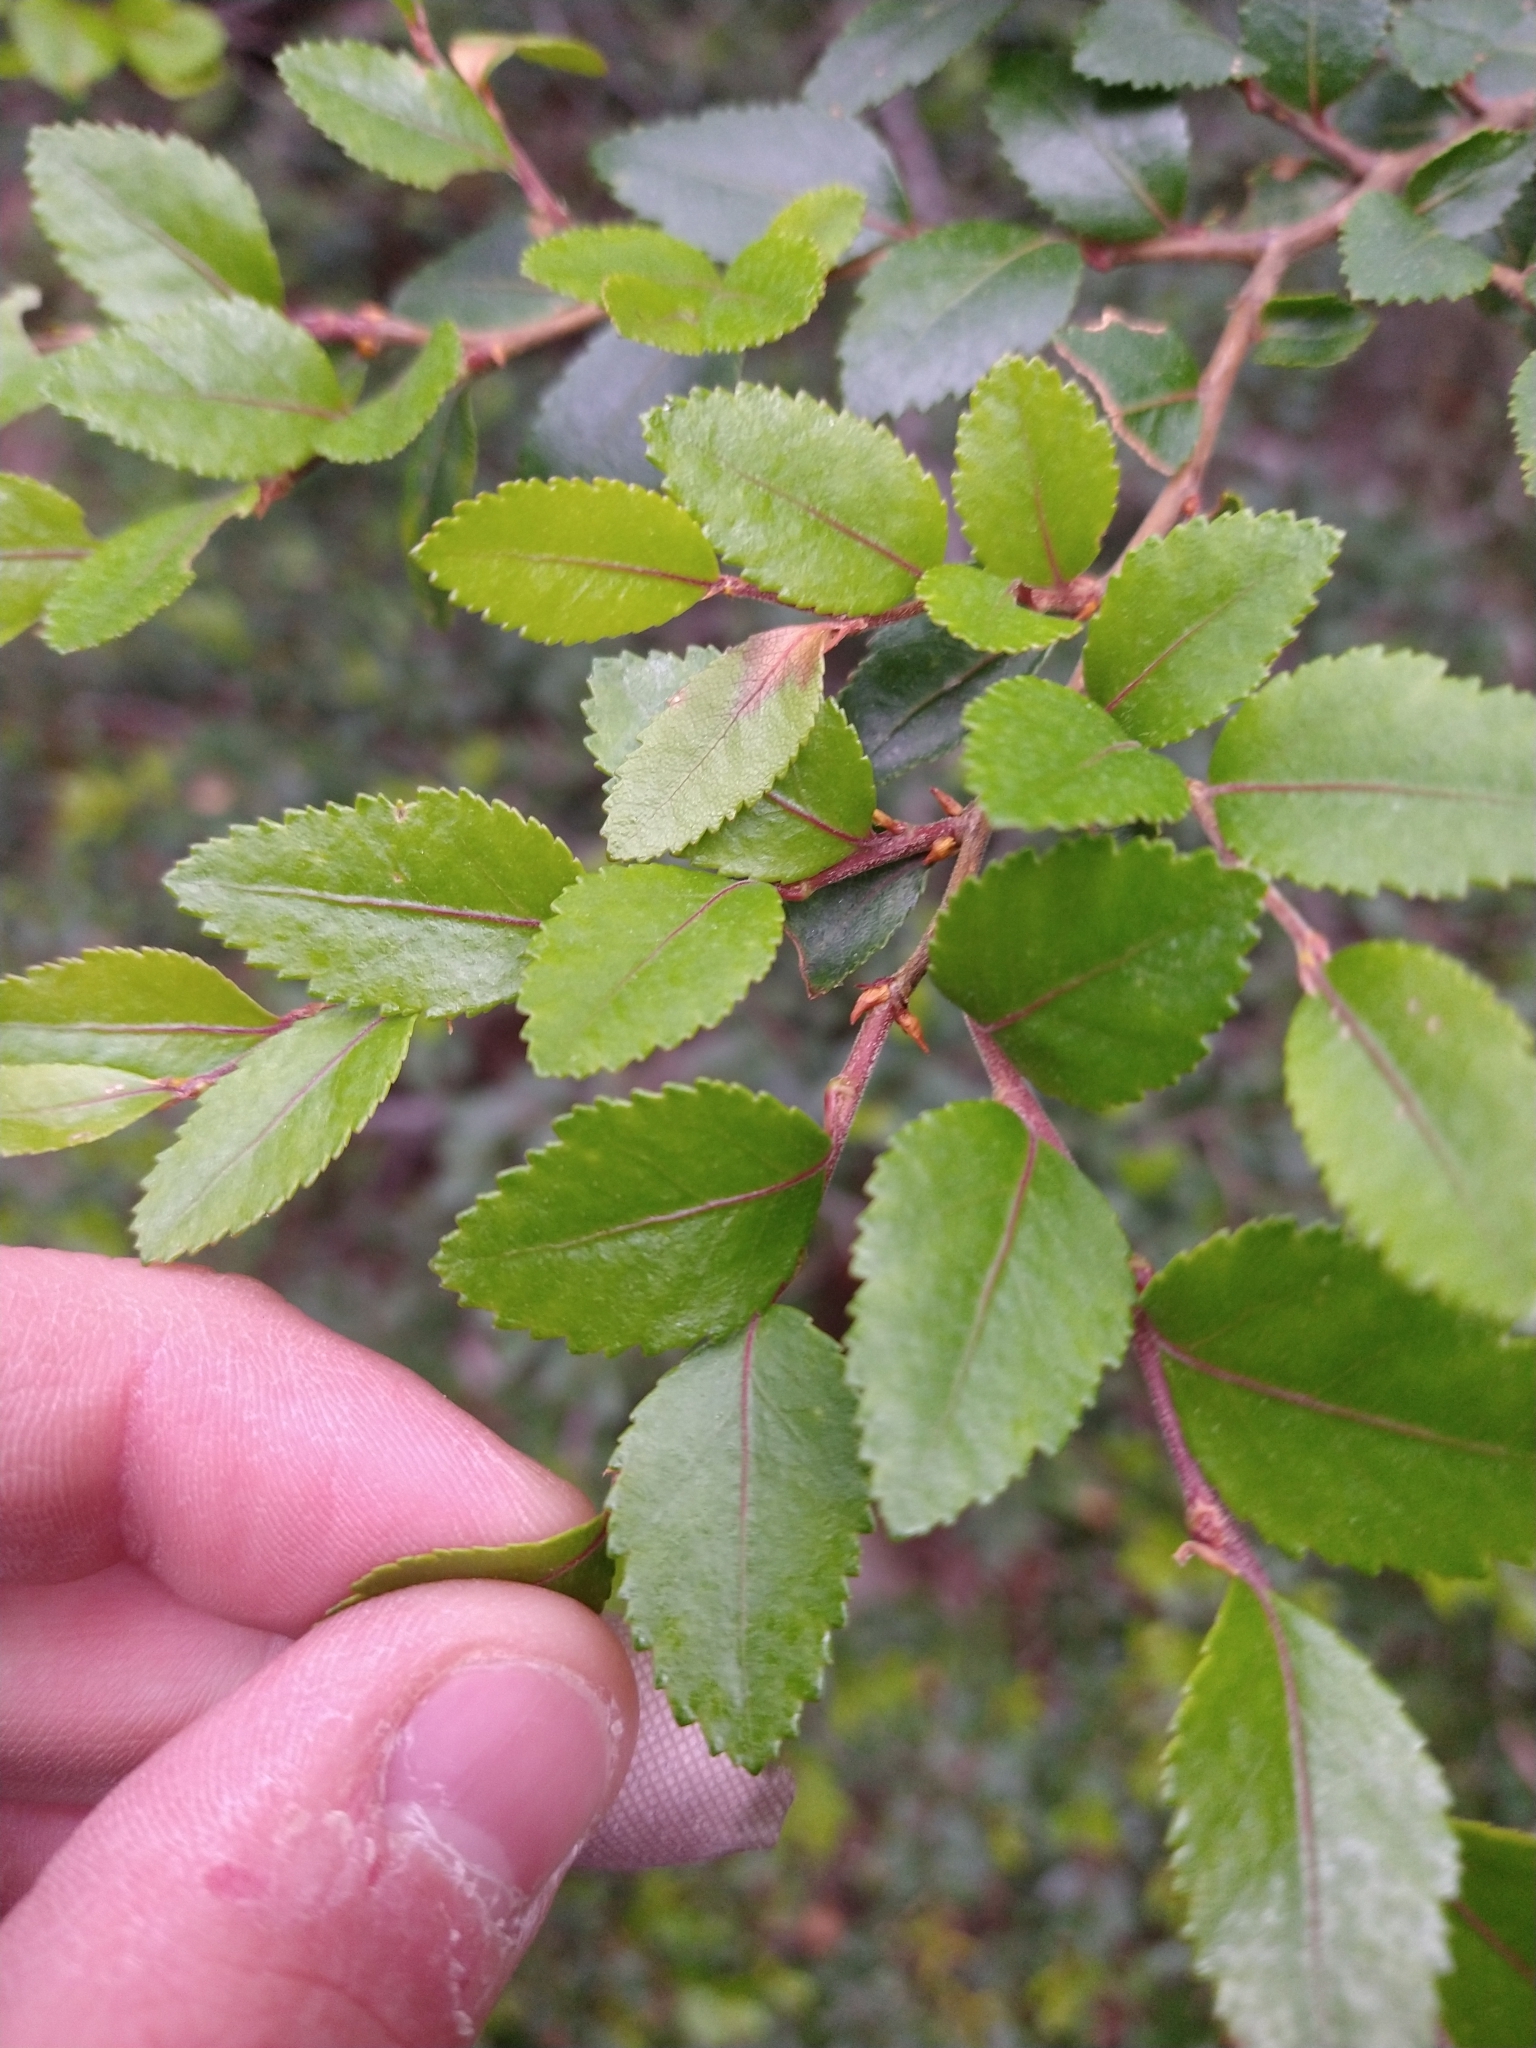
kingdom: Plantae
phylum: Tracheophyta
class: Magnoliopsida
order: Fagales
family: Nothofagaceae
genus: Nothofagus
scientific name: Nothofagus betuloides
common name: Magellan's beech
